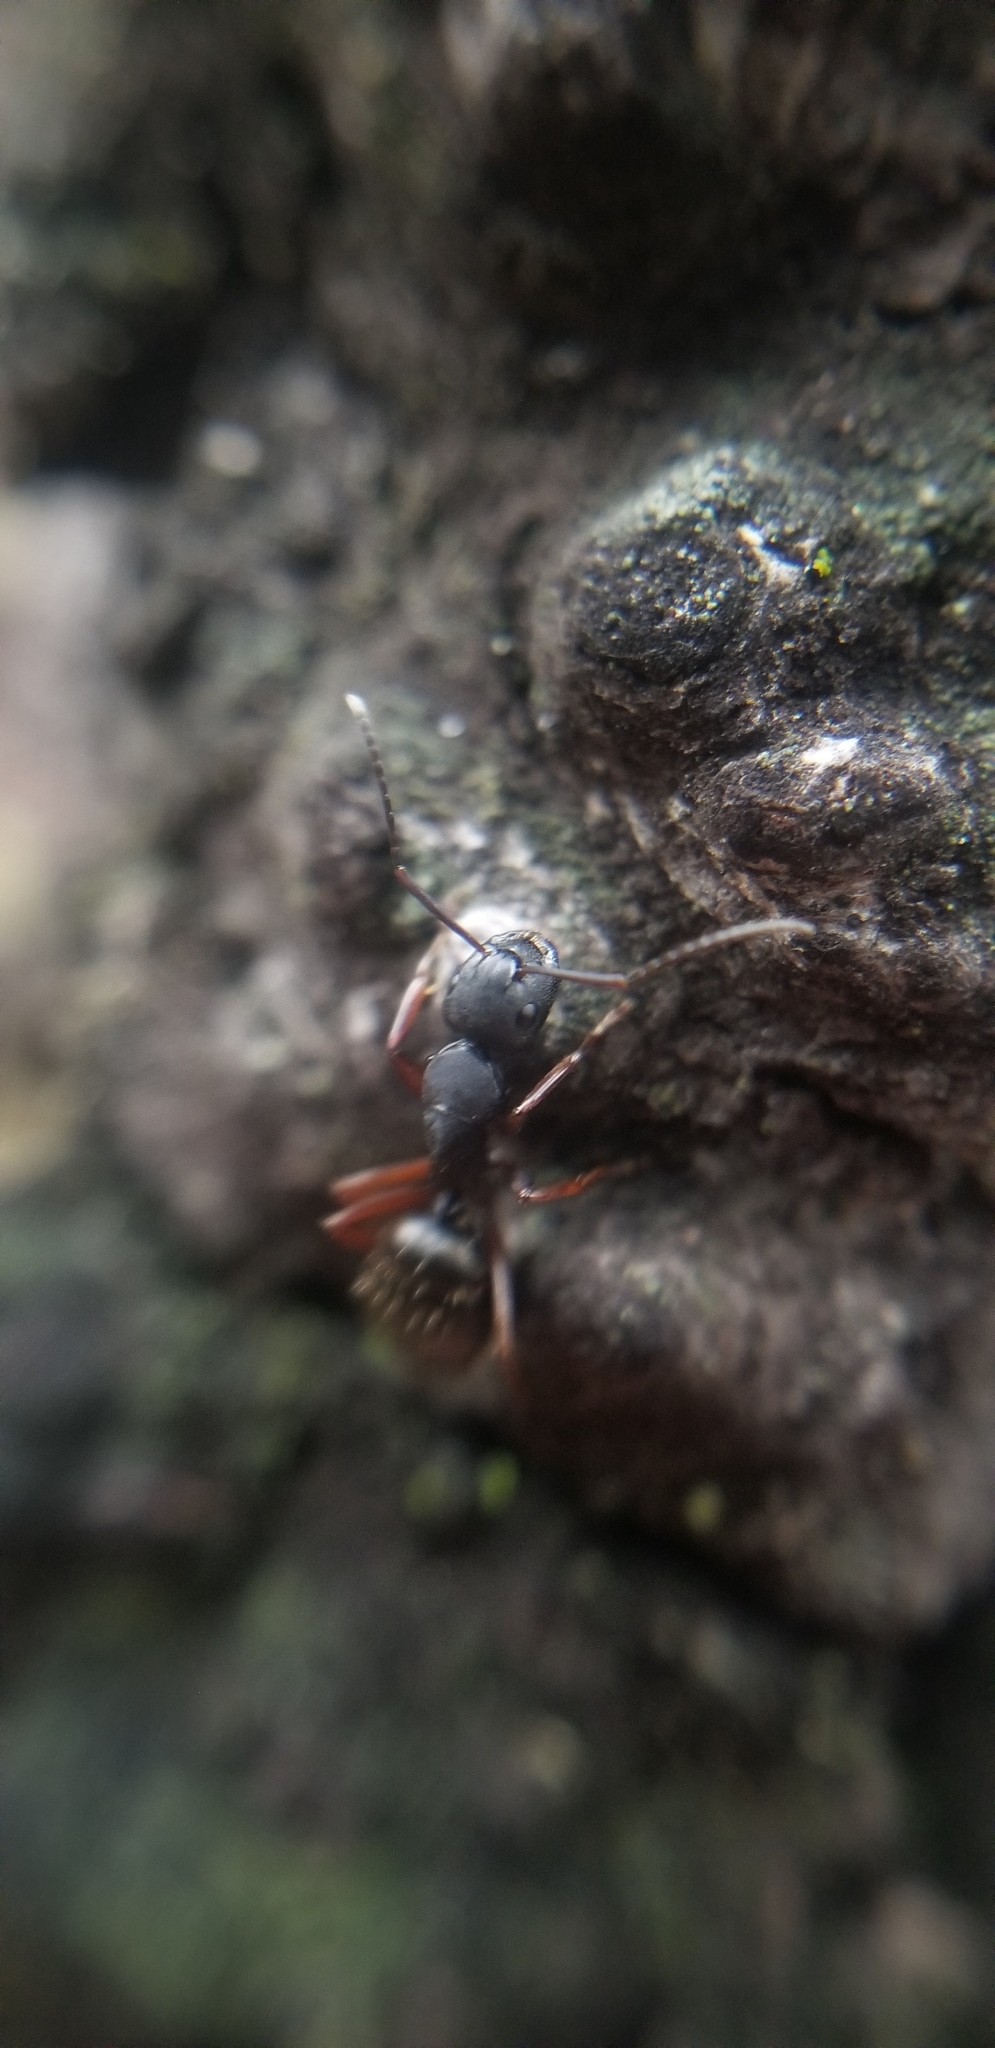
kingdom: Animalia
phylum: Arthropoda
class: Insecta
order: Hymenoptera
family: Formicidae
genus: Camponotus
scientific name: Camponotus modoc
